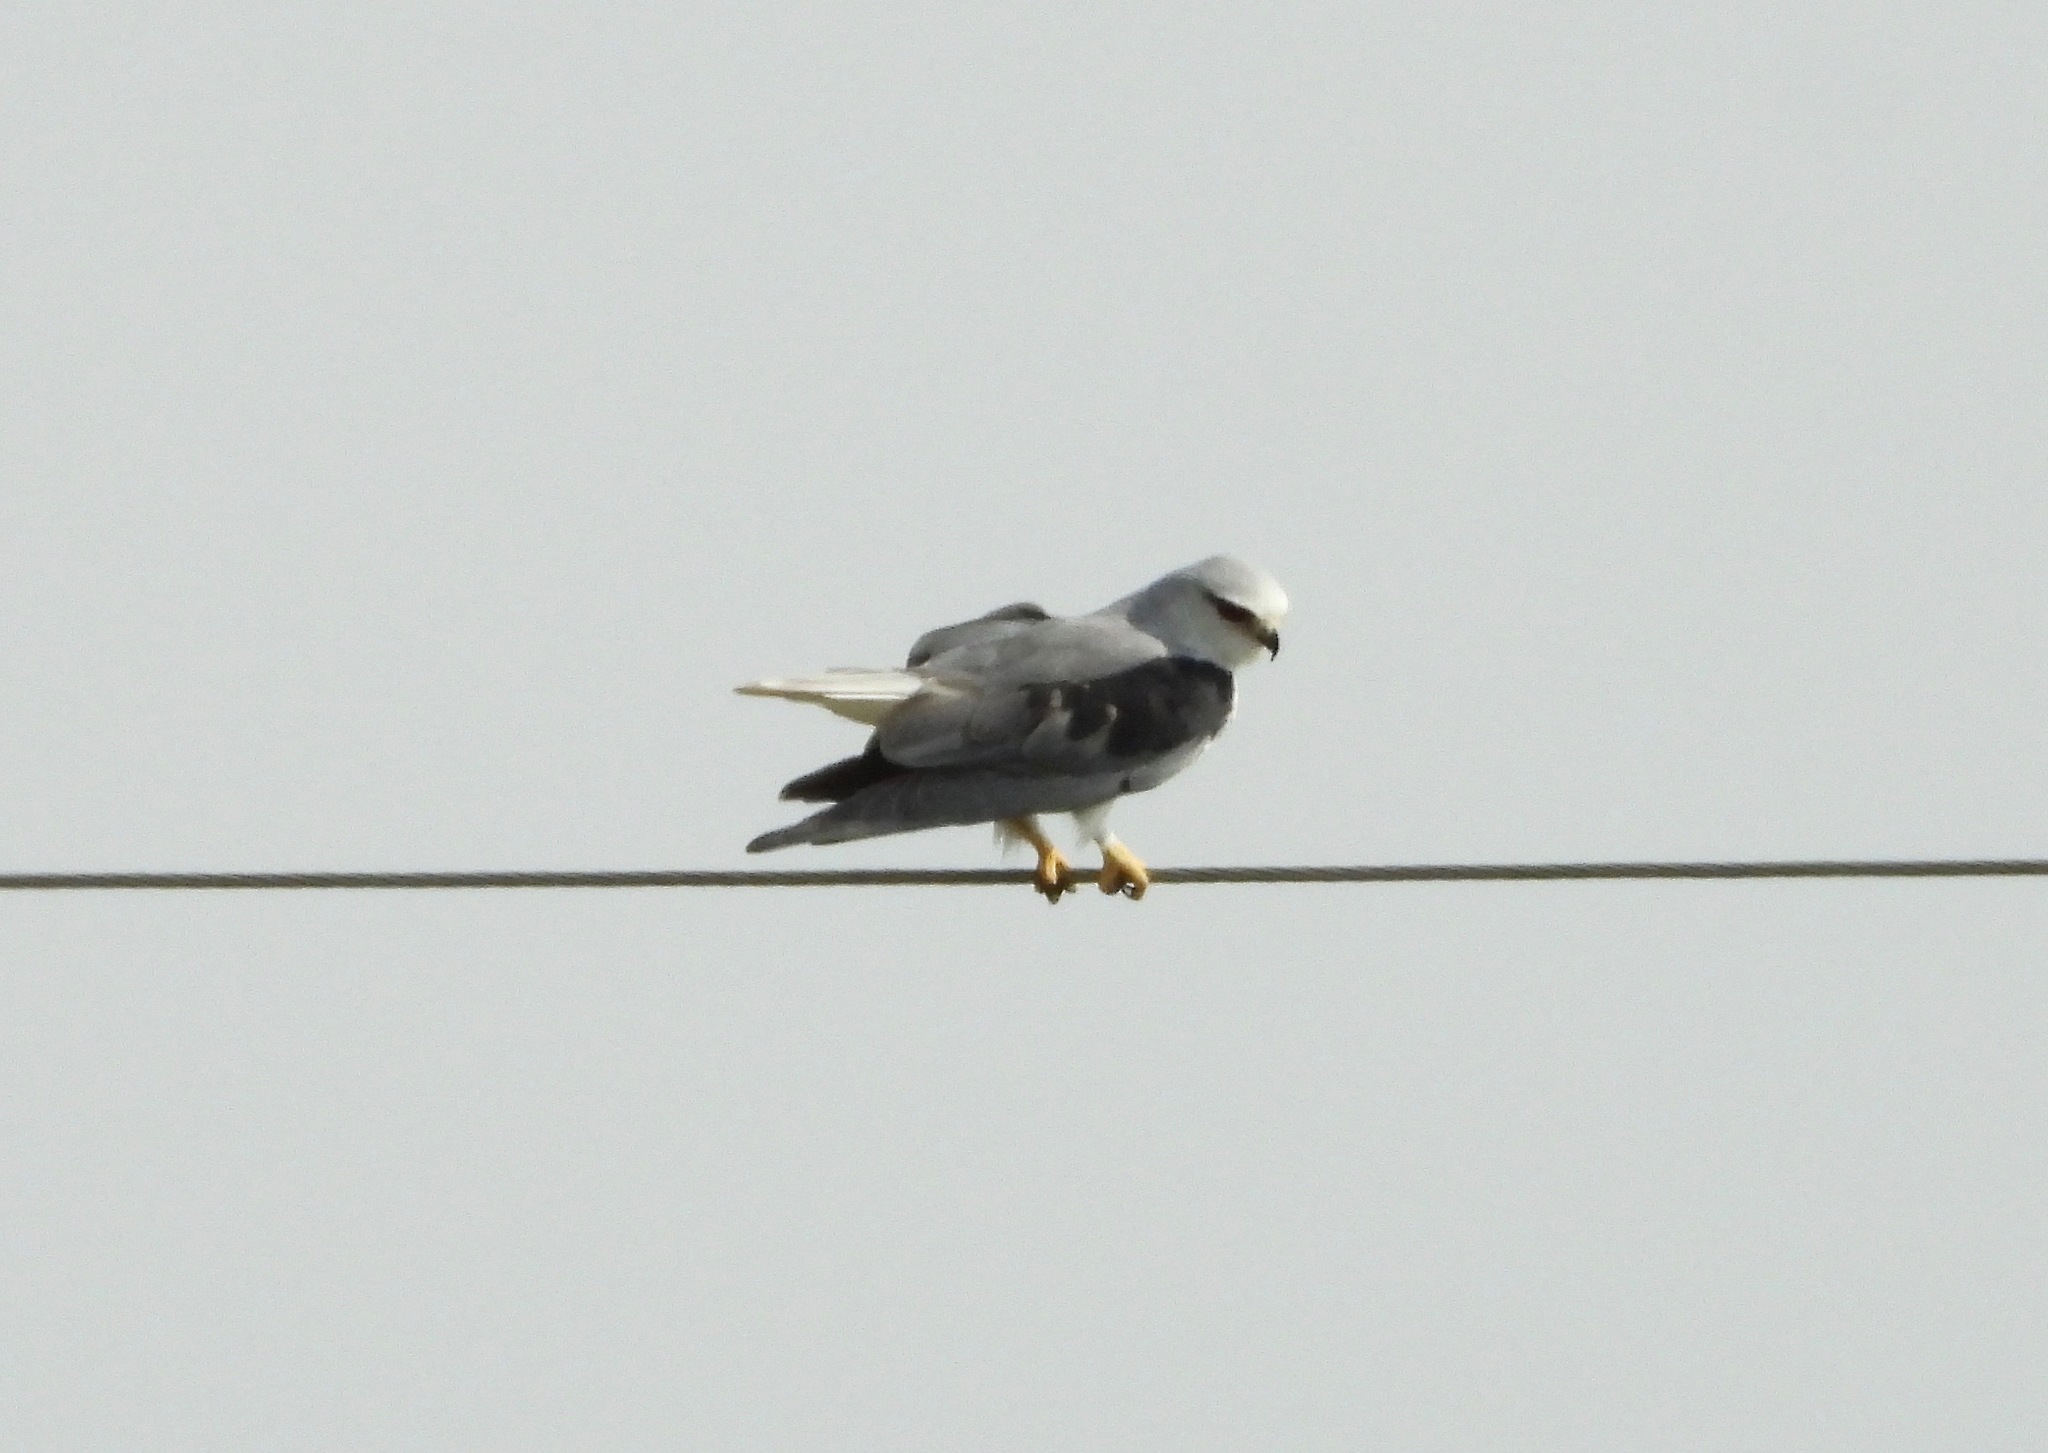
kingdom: Animalia
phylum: Chordata
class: Aves
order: Accipitriformes
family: Accipitridae
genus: Elanus
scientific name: Elanus caeruleus
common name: Black-winged kite
